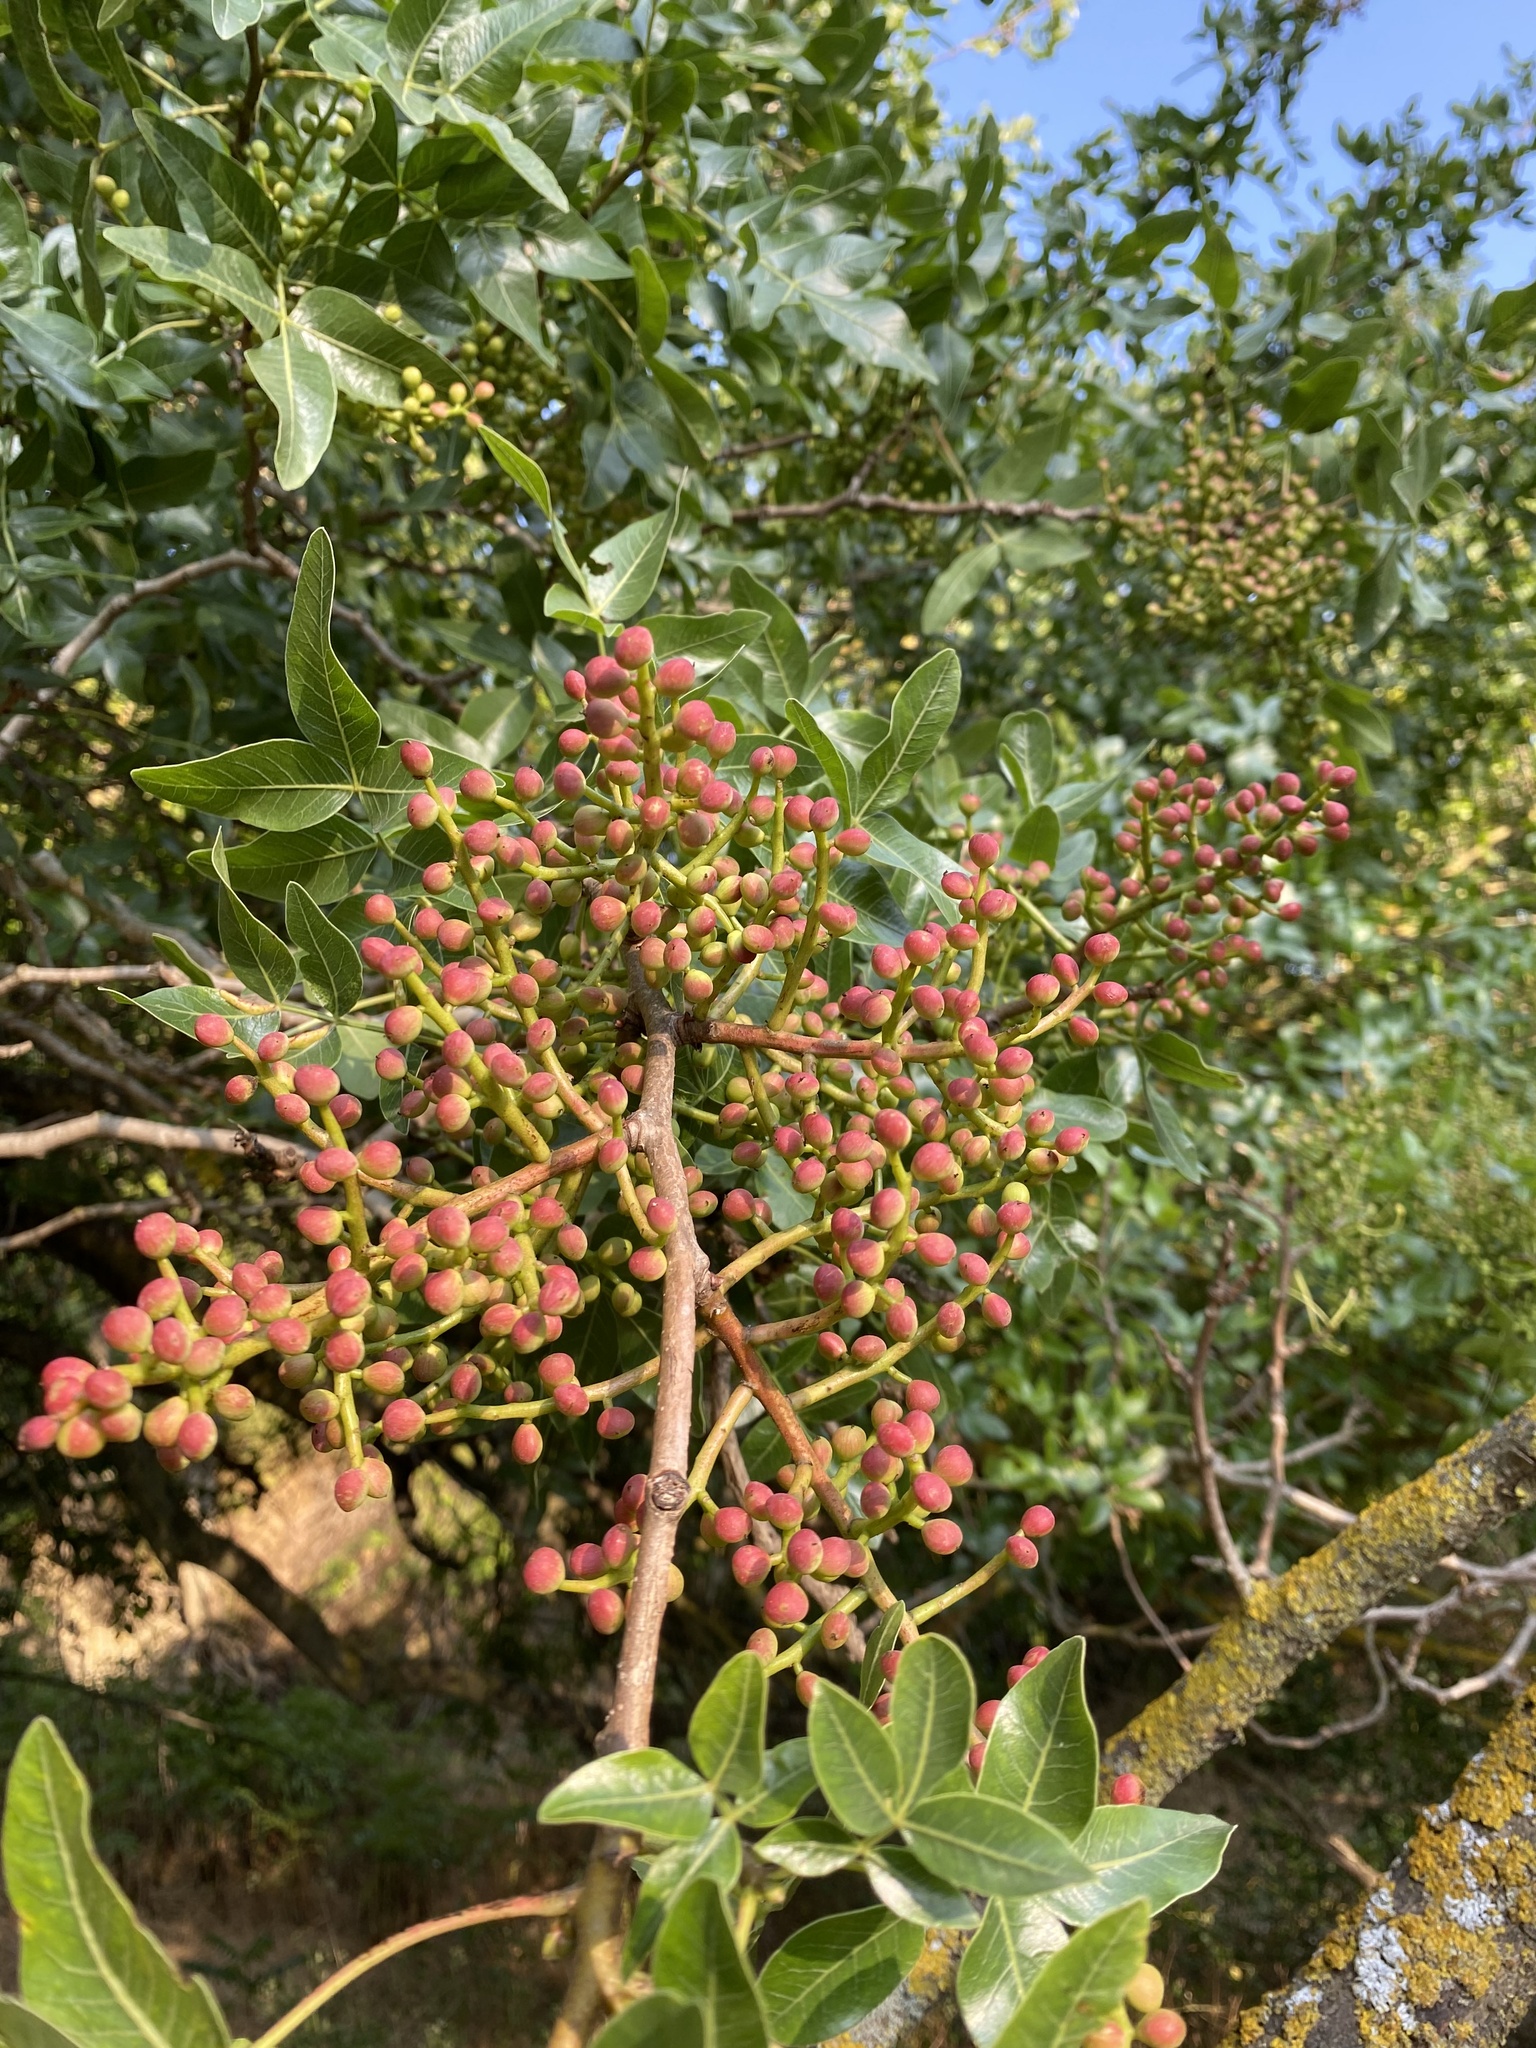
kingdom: Plantae
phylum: Tracheophyta
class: Magnoliopsida
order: Sapindales
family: Anacardiaceae
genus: Pistacia
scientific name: Pistacia atlantica
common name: Mt. atlas mastic tree
